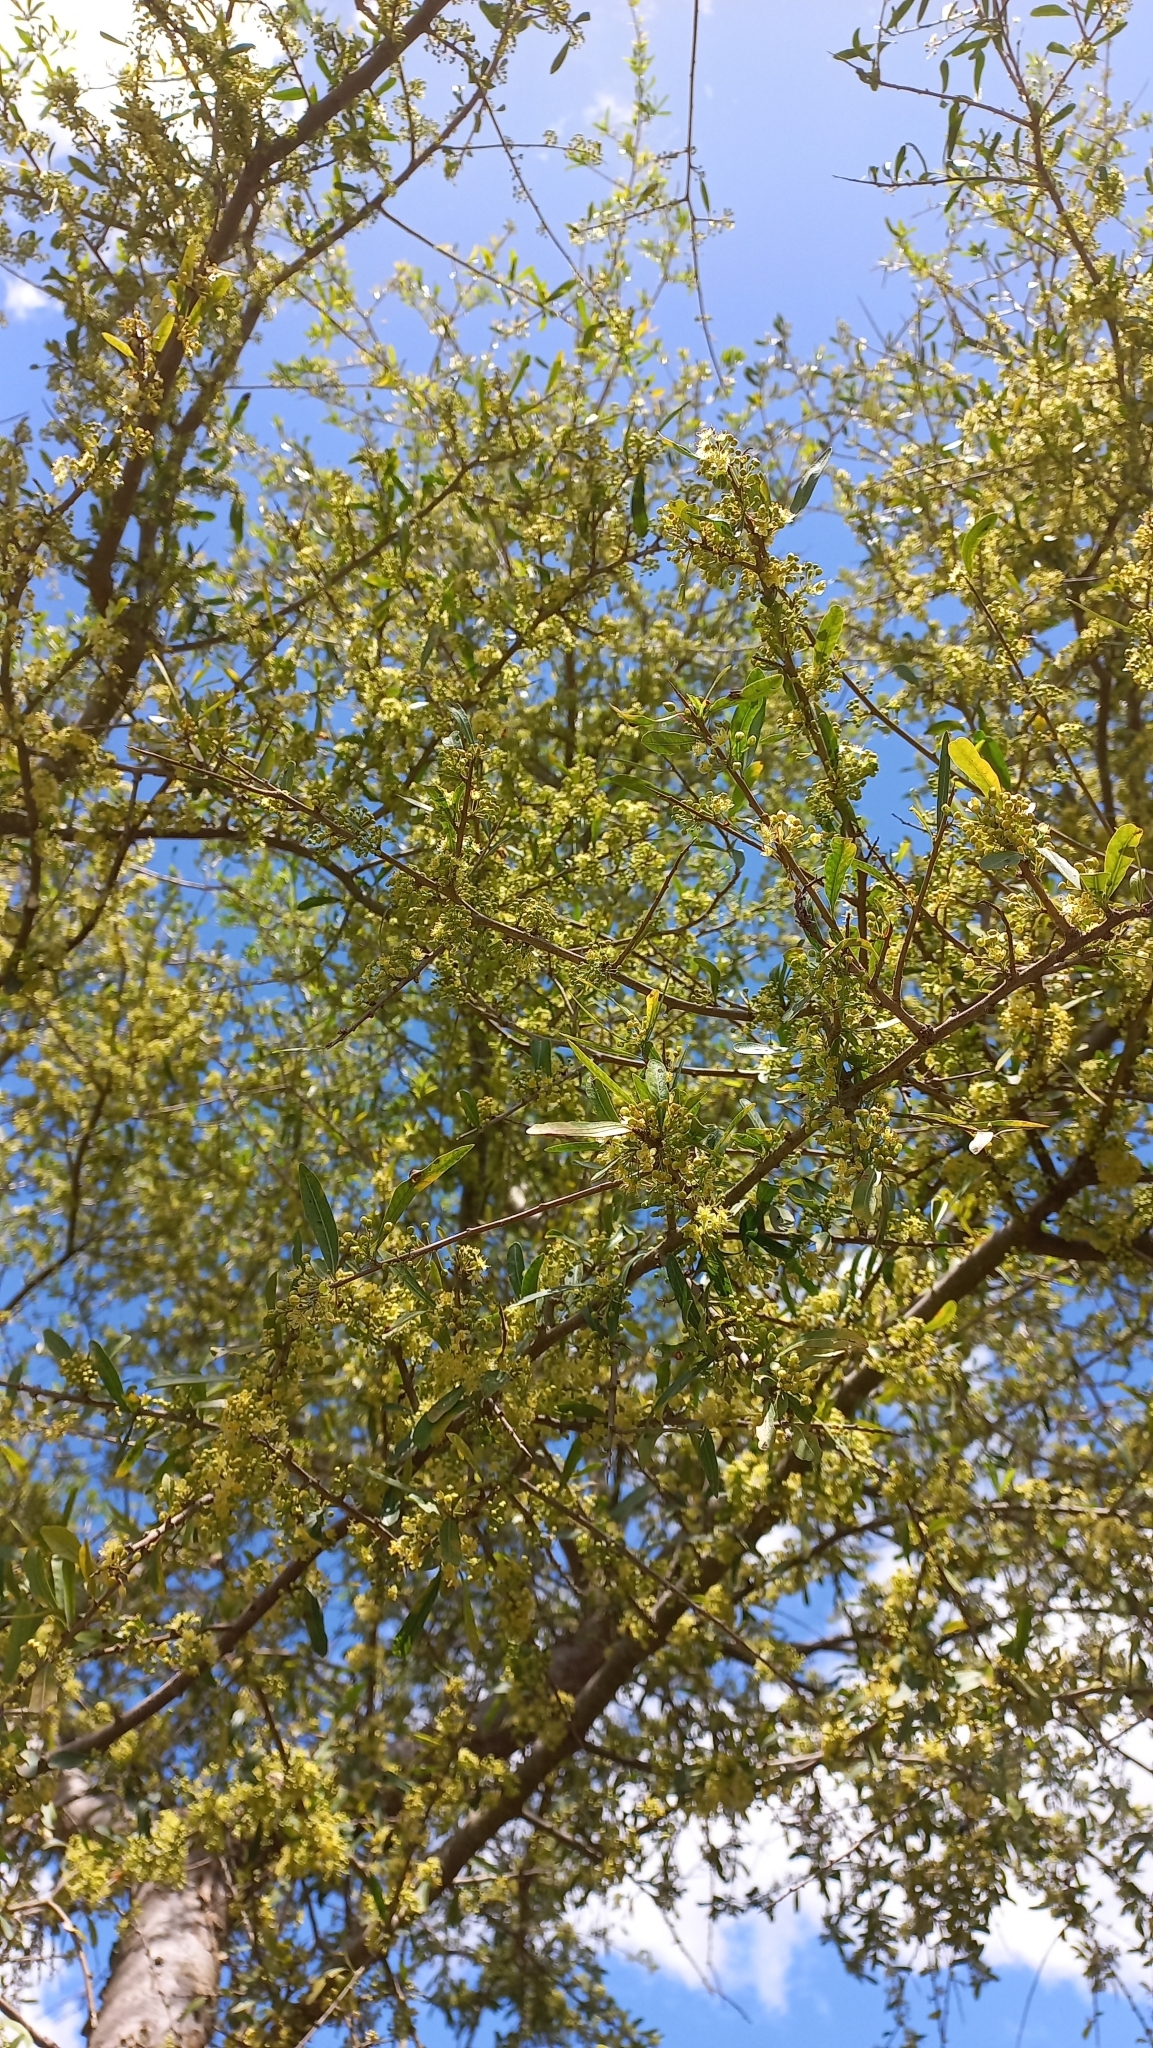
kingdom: Plantae
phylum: Tracheophyta
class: Magnoliopsida
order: Sapindales
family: Anacardiaceae
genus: Schinus
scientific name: Schinus longifolia
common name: Longleaf peppertree
